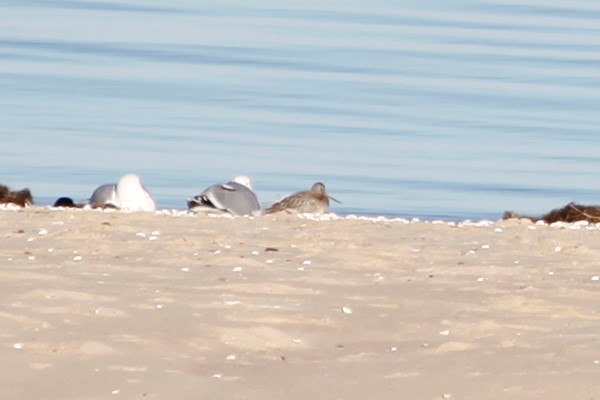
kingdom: Animalia
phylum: Chordata
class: Aves
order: Charadriiformes
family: Scolopacidae
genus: Limosa
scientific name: Limosa lapponica
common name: Bar-tailed godwit
